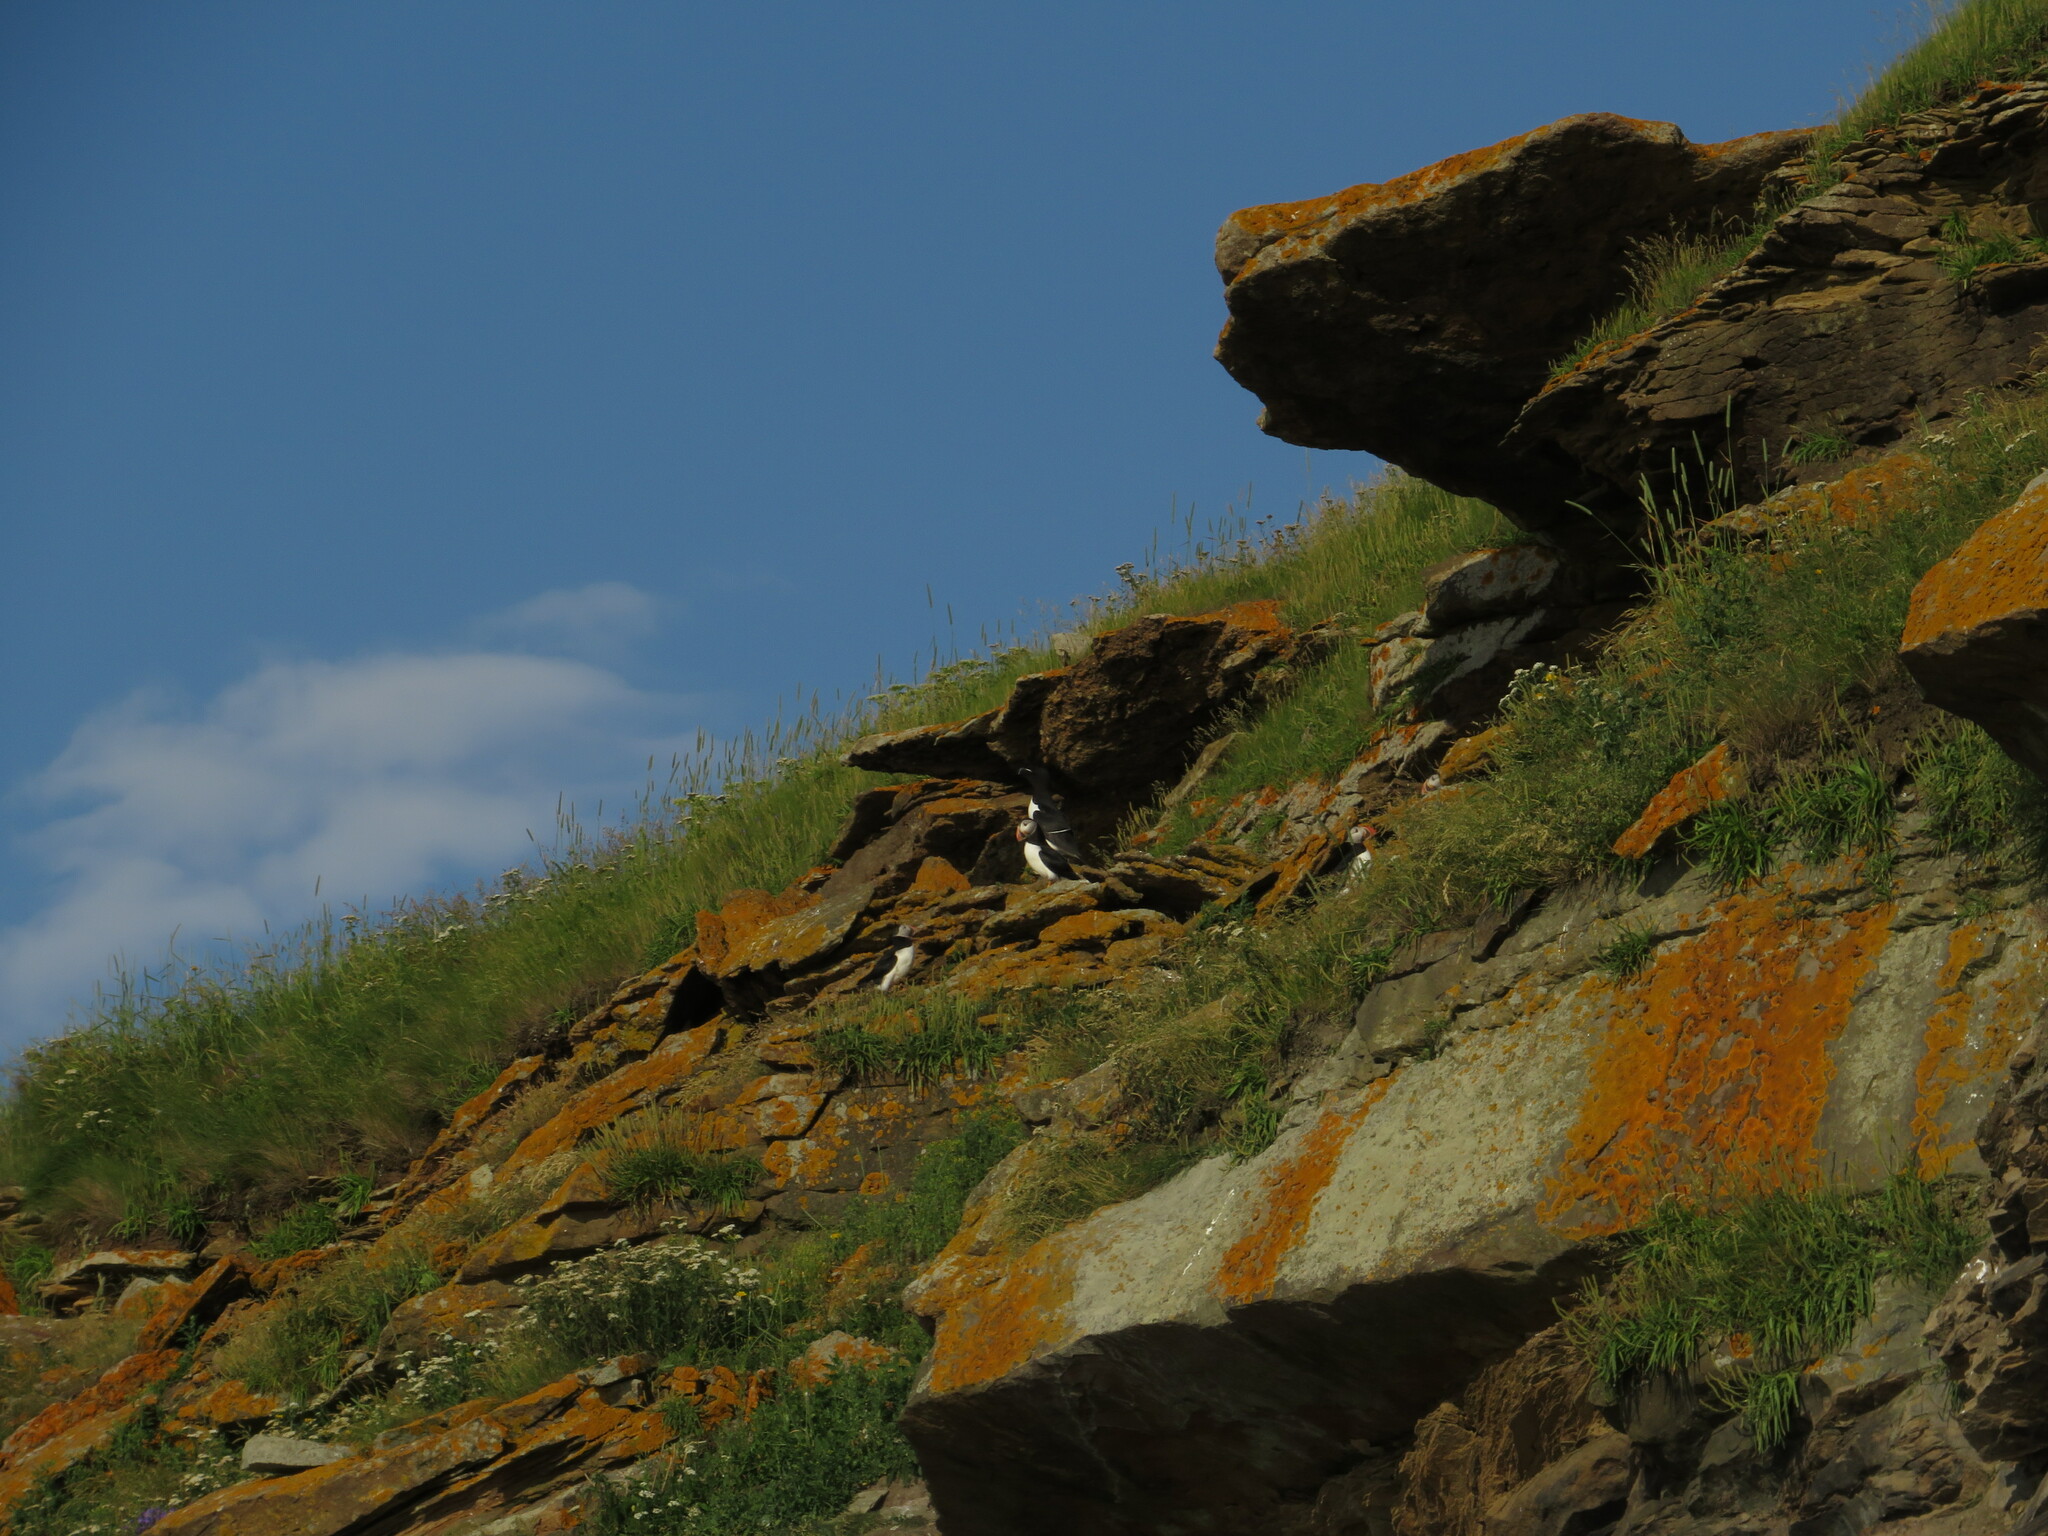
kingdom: Animalia
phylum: Chordata
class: Aves
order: Charadriiformes
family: Alcidae
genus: Fratercula
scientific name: Fratercula arctica
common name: Atlantic puffin
